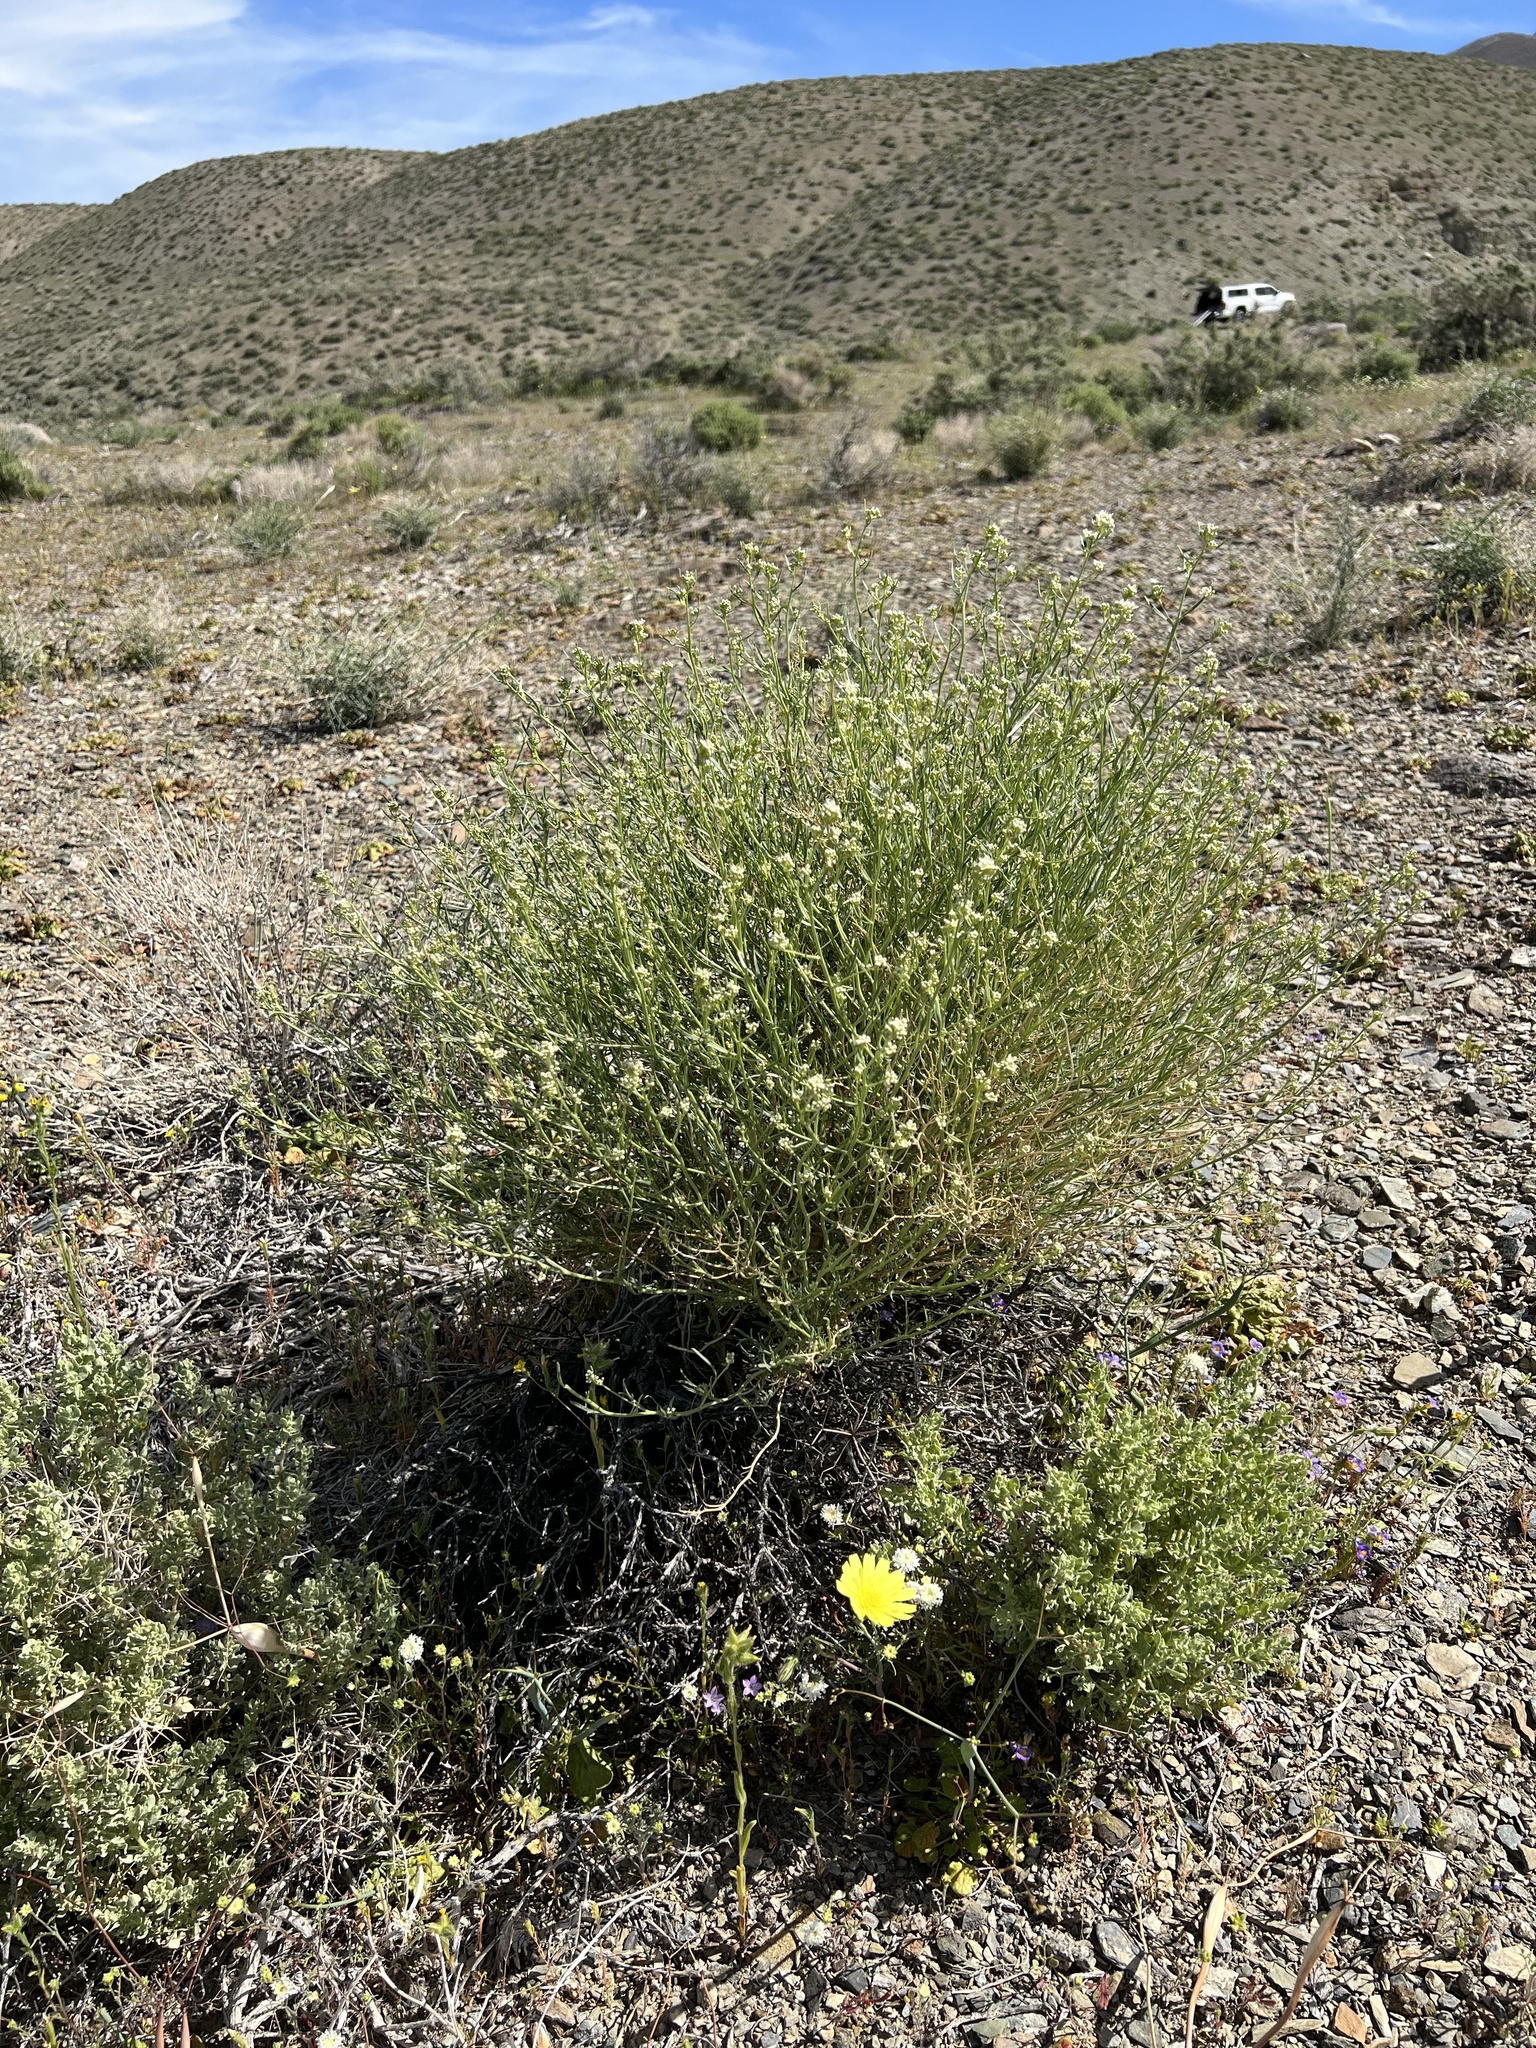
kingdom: Plantae
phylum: Tracheophyta
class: Magnoliopsida
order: Brassicales
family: Brassicaceae
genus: Lepidium
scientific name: Lepidium fremontii
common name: Fremont's pepperwort
